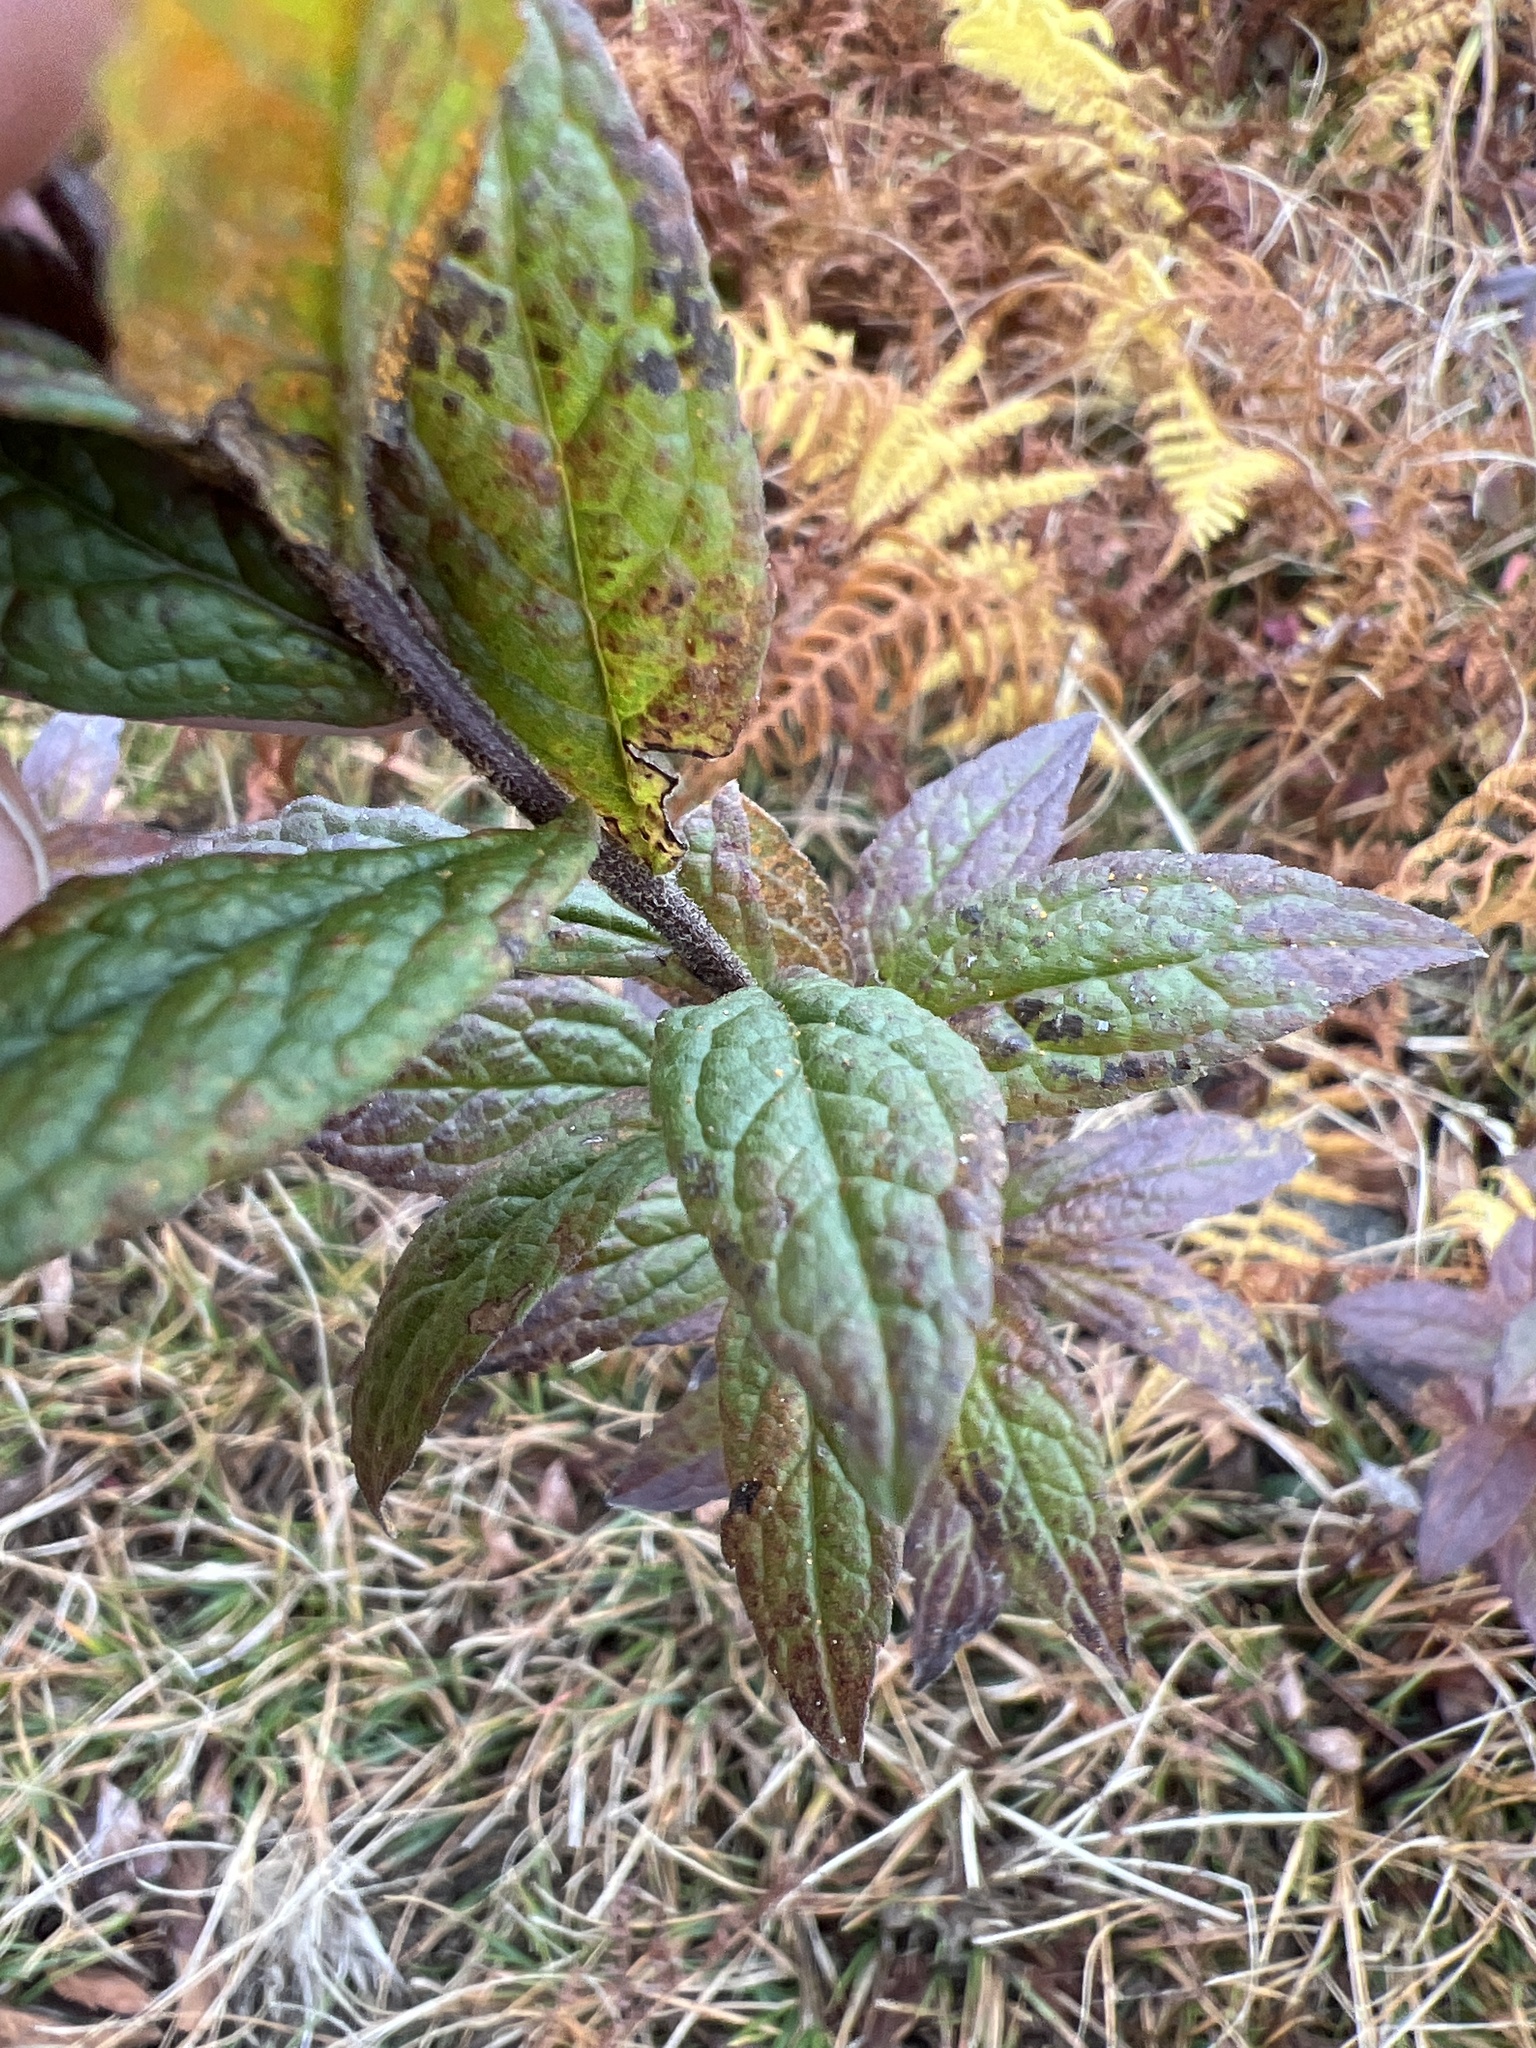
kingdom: Plantae
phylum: Tracheophyta
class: Magnoliopsida
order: Asterales
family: Asteraceae
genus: Solidago
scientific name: Solidago rugosa
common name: Rough-stemmed goldenrod
